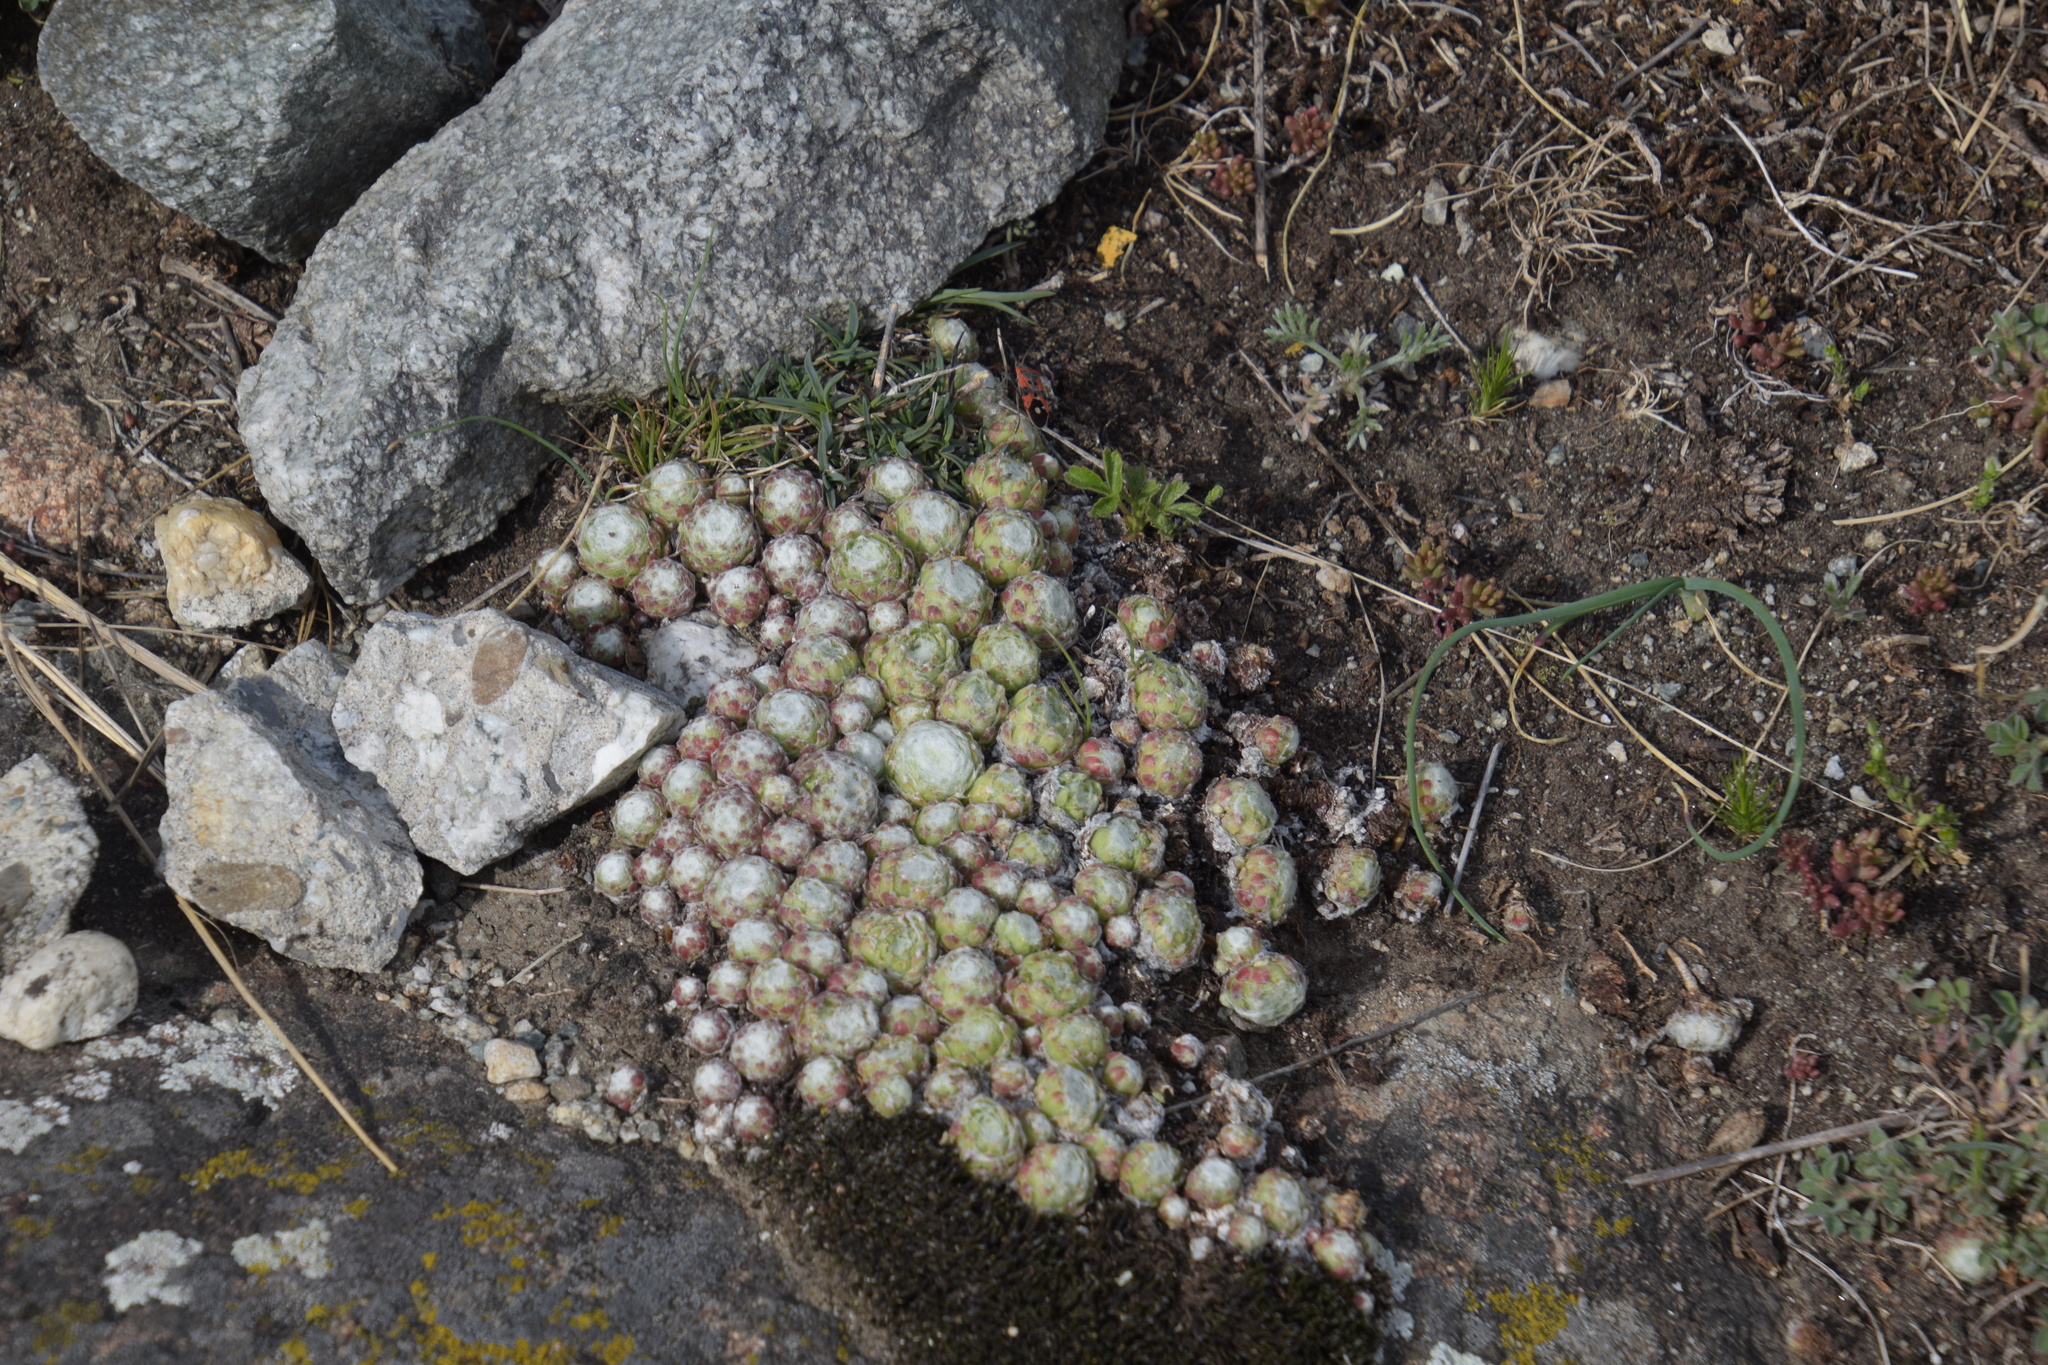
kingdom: Plantae
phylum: Tracheophyta
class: Magnoliopsida
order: Saxifragales
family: Crassulaceae
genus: Sempervivum
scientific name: Sempervivum arachnoideum
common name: Cobweb house-leek
